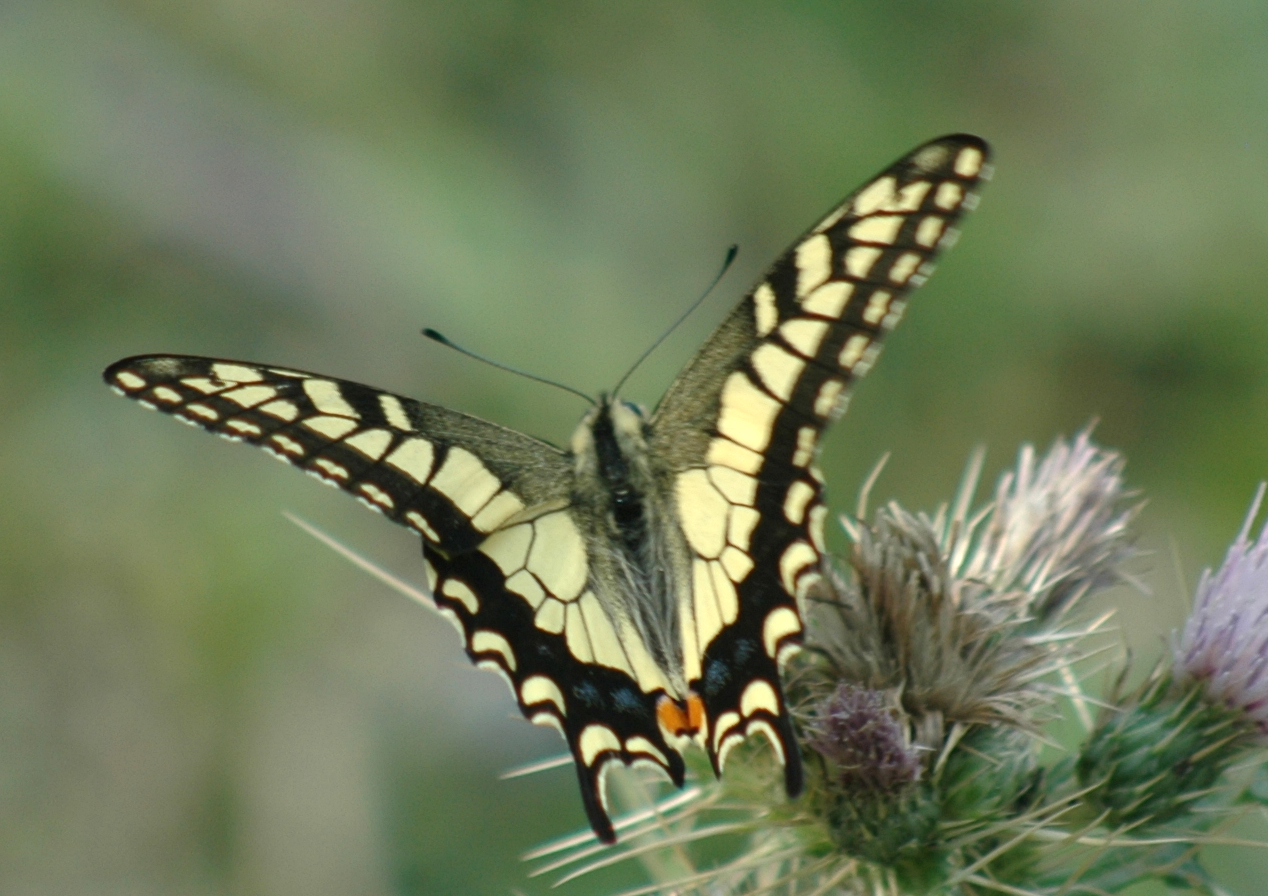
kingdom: Animalia
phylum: Arthropoda
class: Insecta
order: Lepidoptera
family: Papilionidae
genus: Papilio
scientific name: Papilio machaon
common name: Swallowtail
